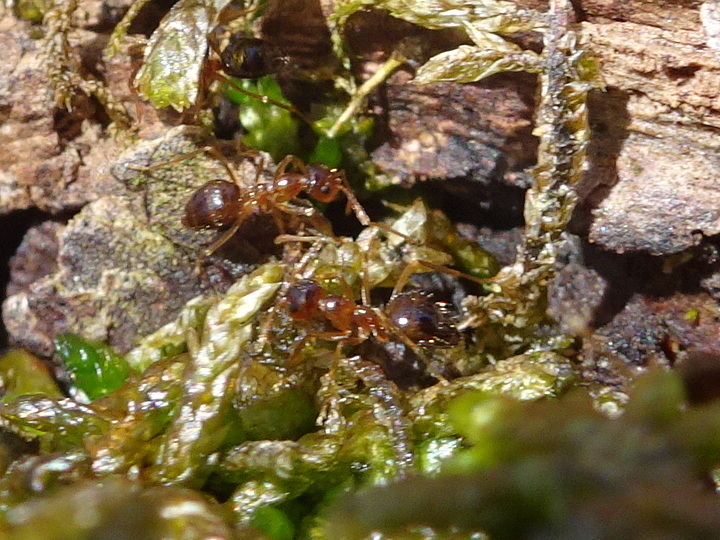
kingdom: Animalia
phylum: Arthropoda
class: Insecta
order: Hymenoptera
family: Formicidae
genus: Prenolepis
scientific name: Prenolepis imparis
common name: Small honey ant
